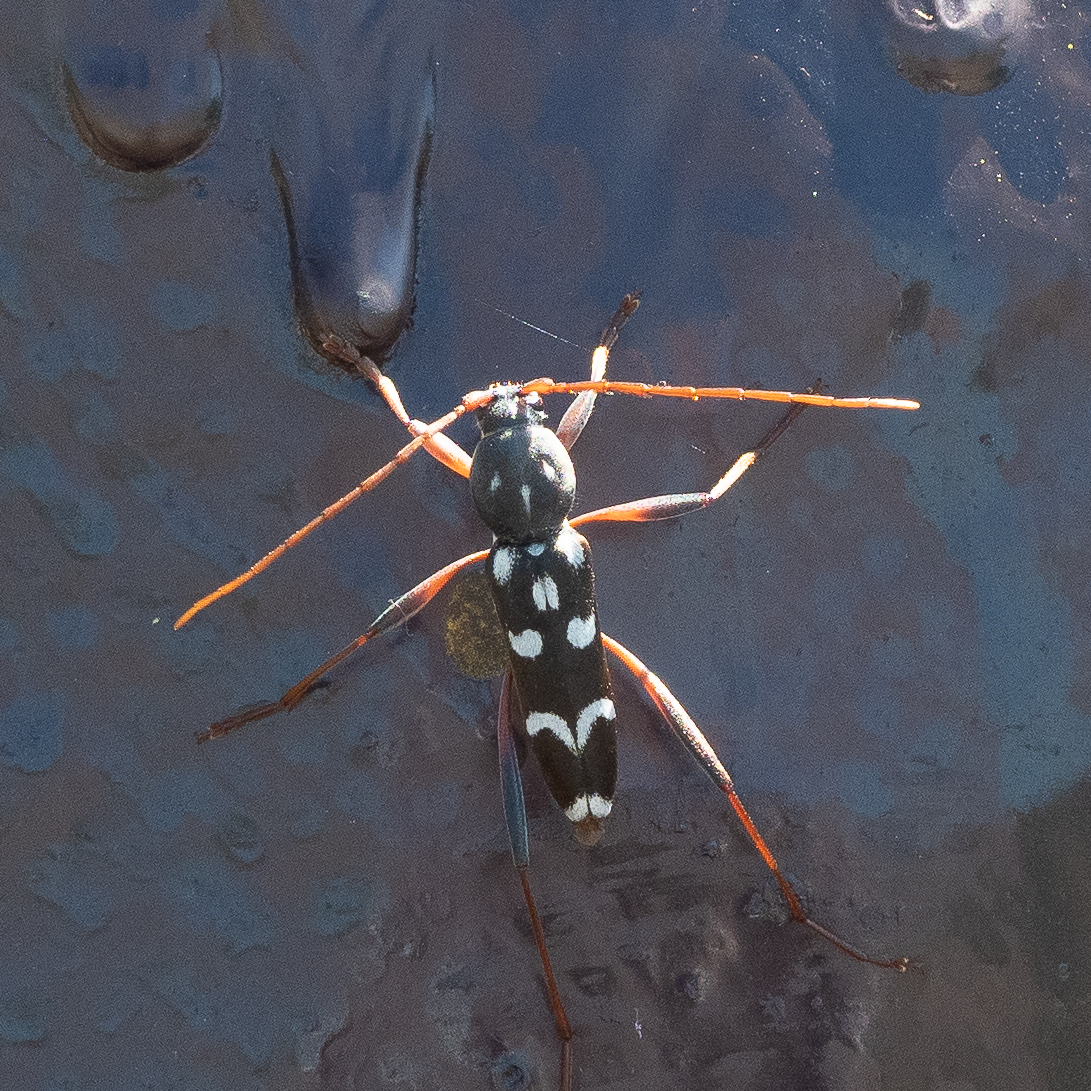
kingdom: Animalia
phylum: Arthropoda
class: Insecta
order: Coleoptera
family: Cerambycidae
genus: Isotomus
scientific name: Isotomus speciosus
